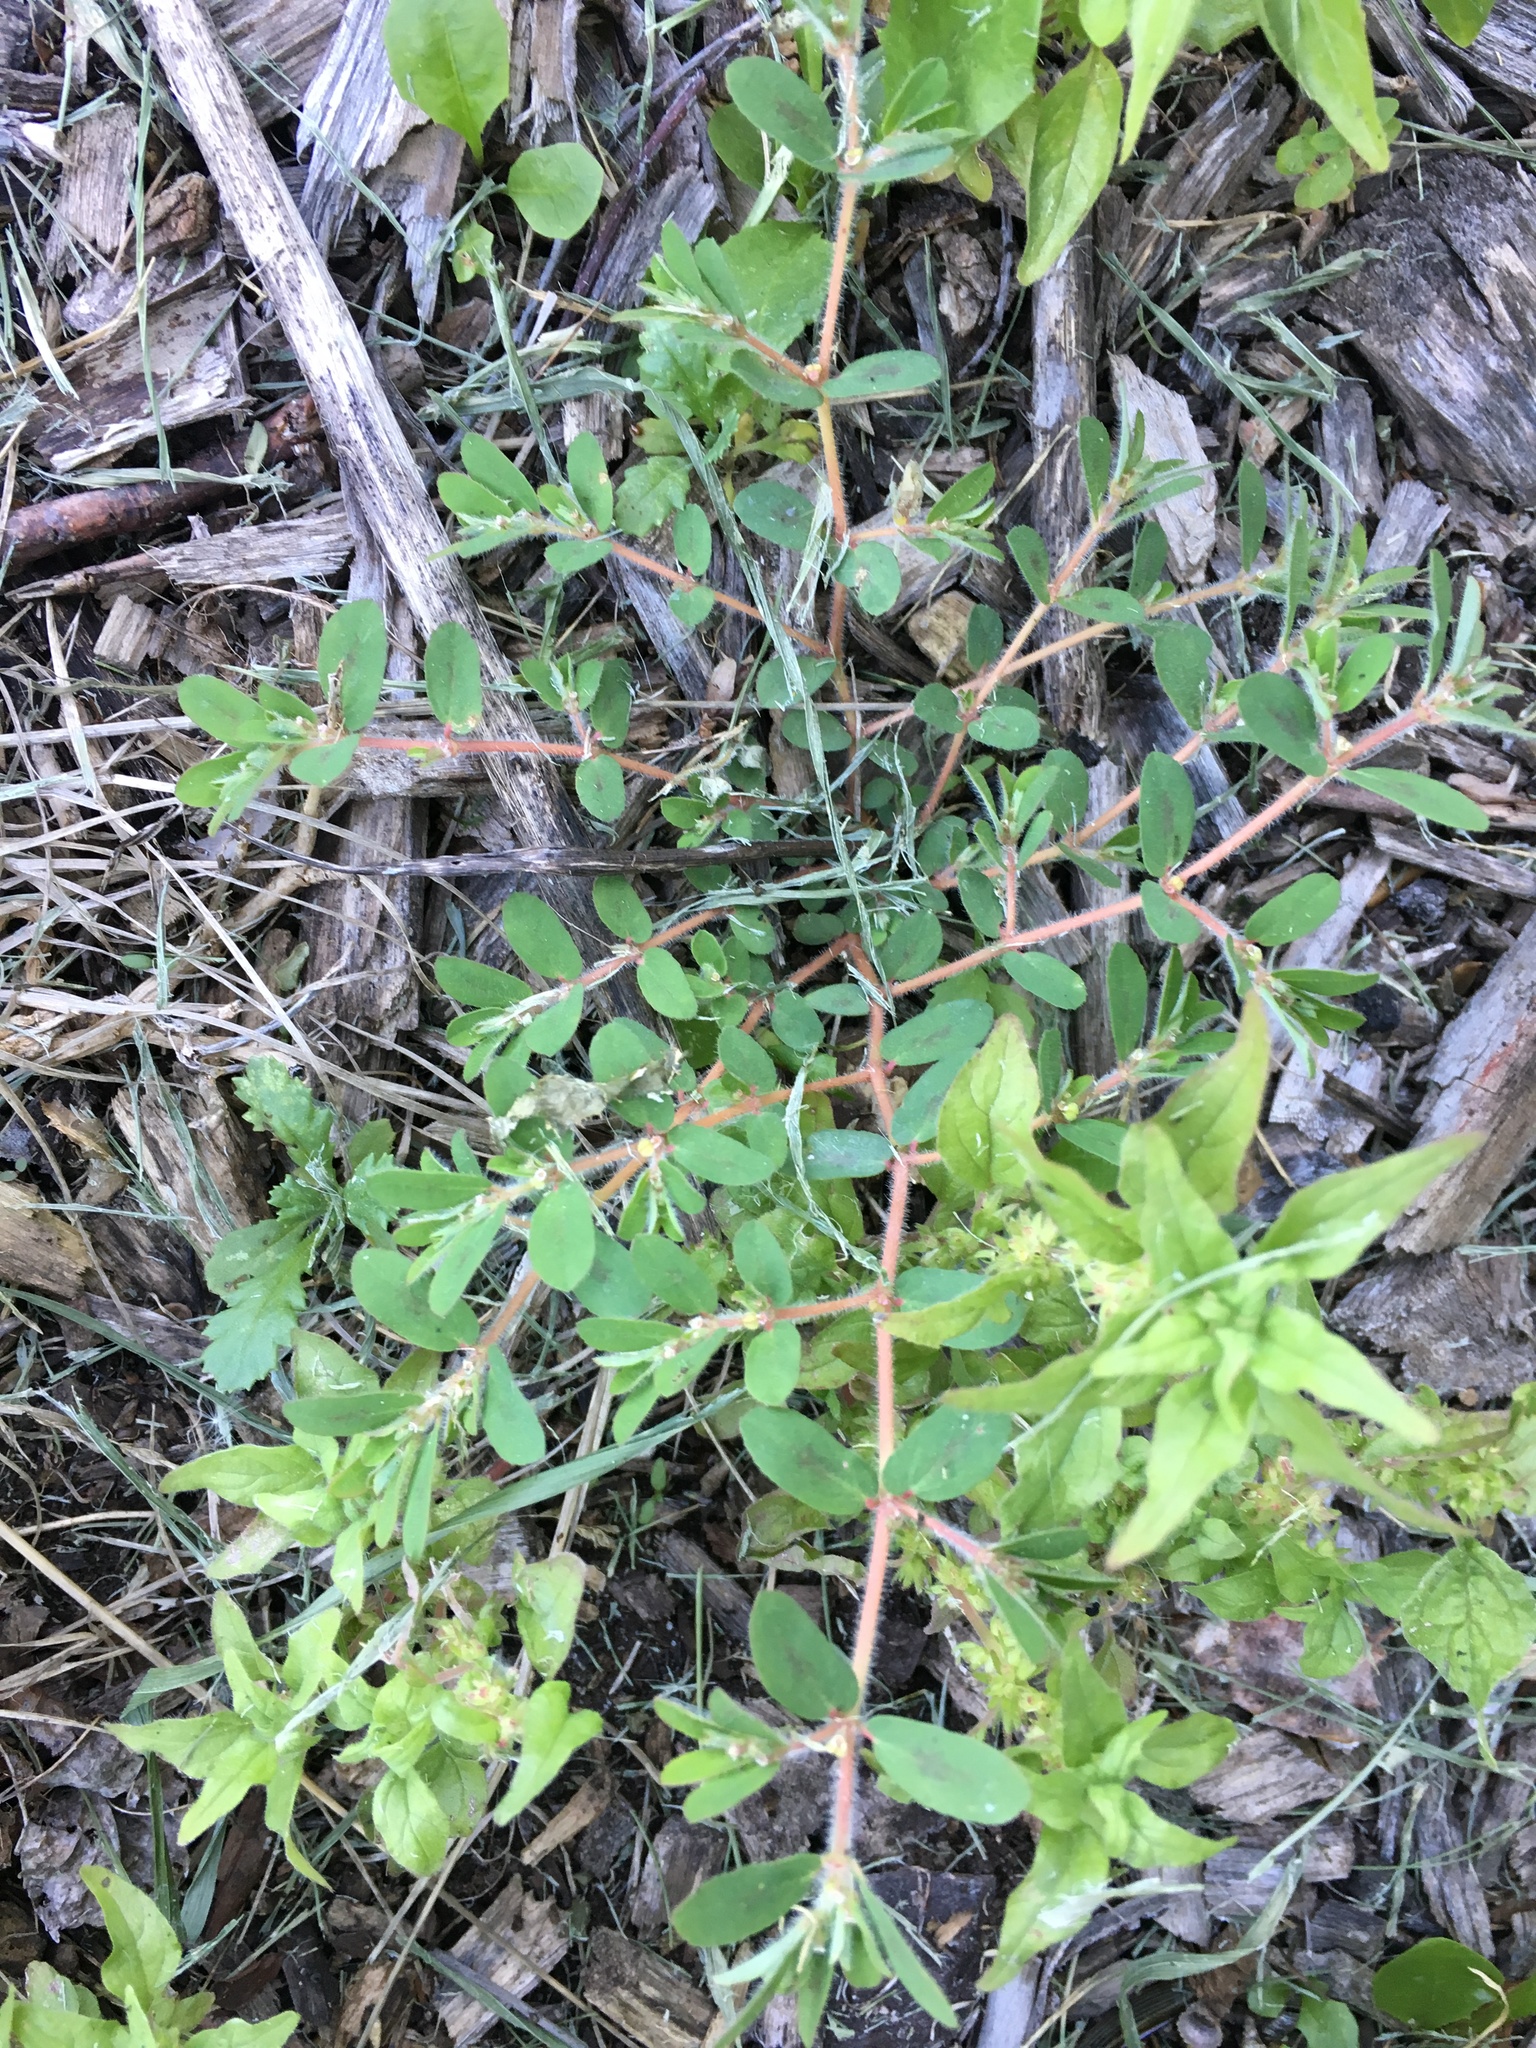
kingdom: Plantae
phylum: Tracheophyta
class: Magnoliopsida
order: Malpighiales
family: Euphorbiaceae
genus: Euphorbia
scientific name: Euphorbia maculata
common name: Spotted spurge
